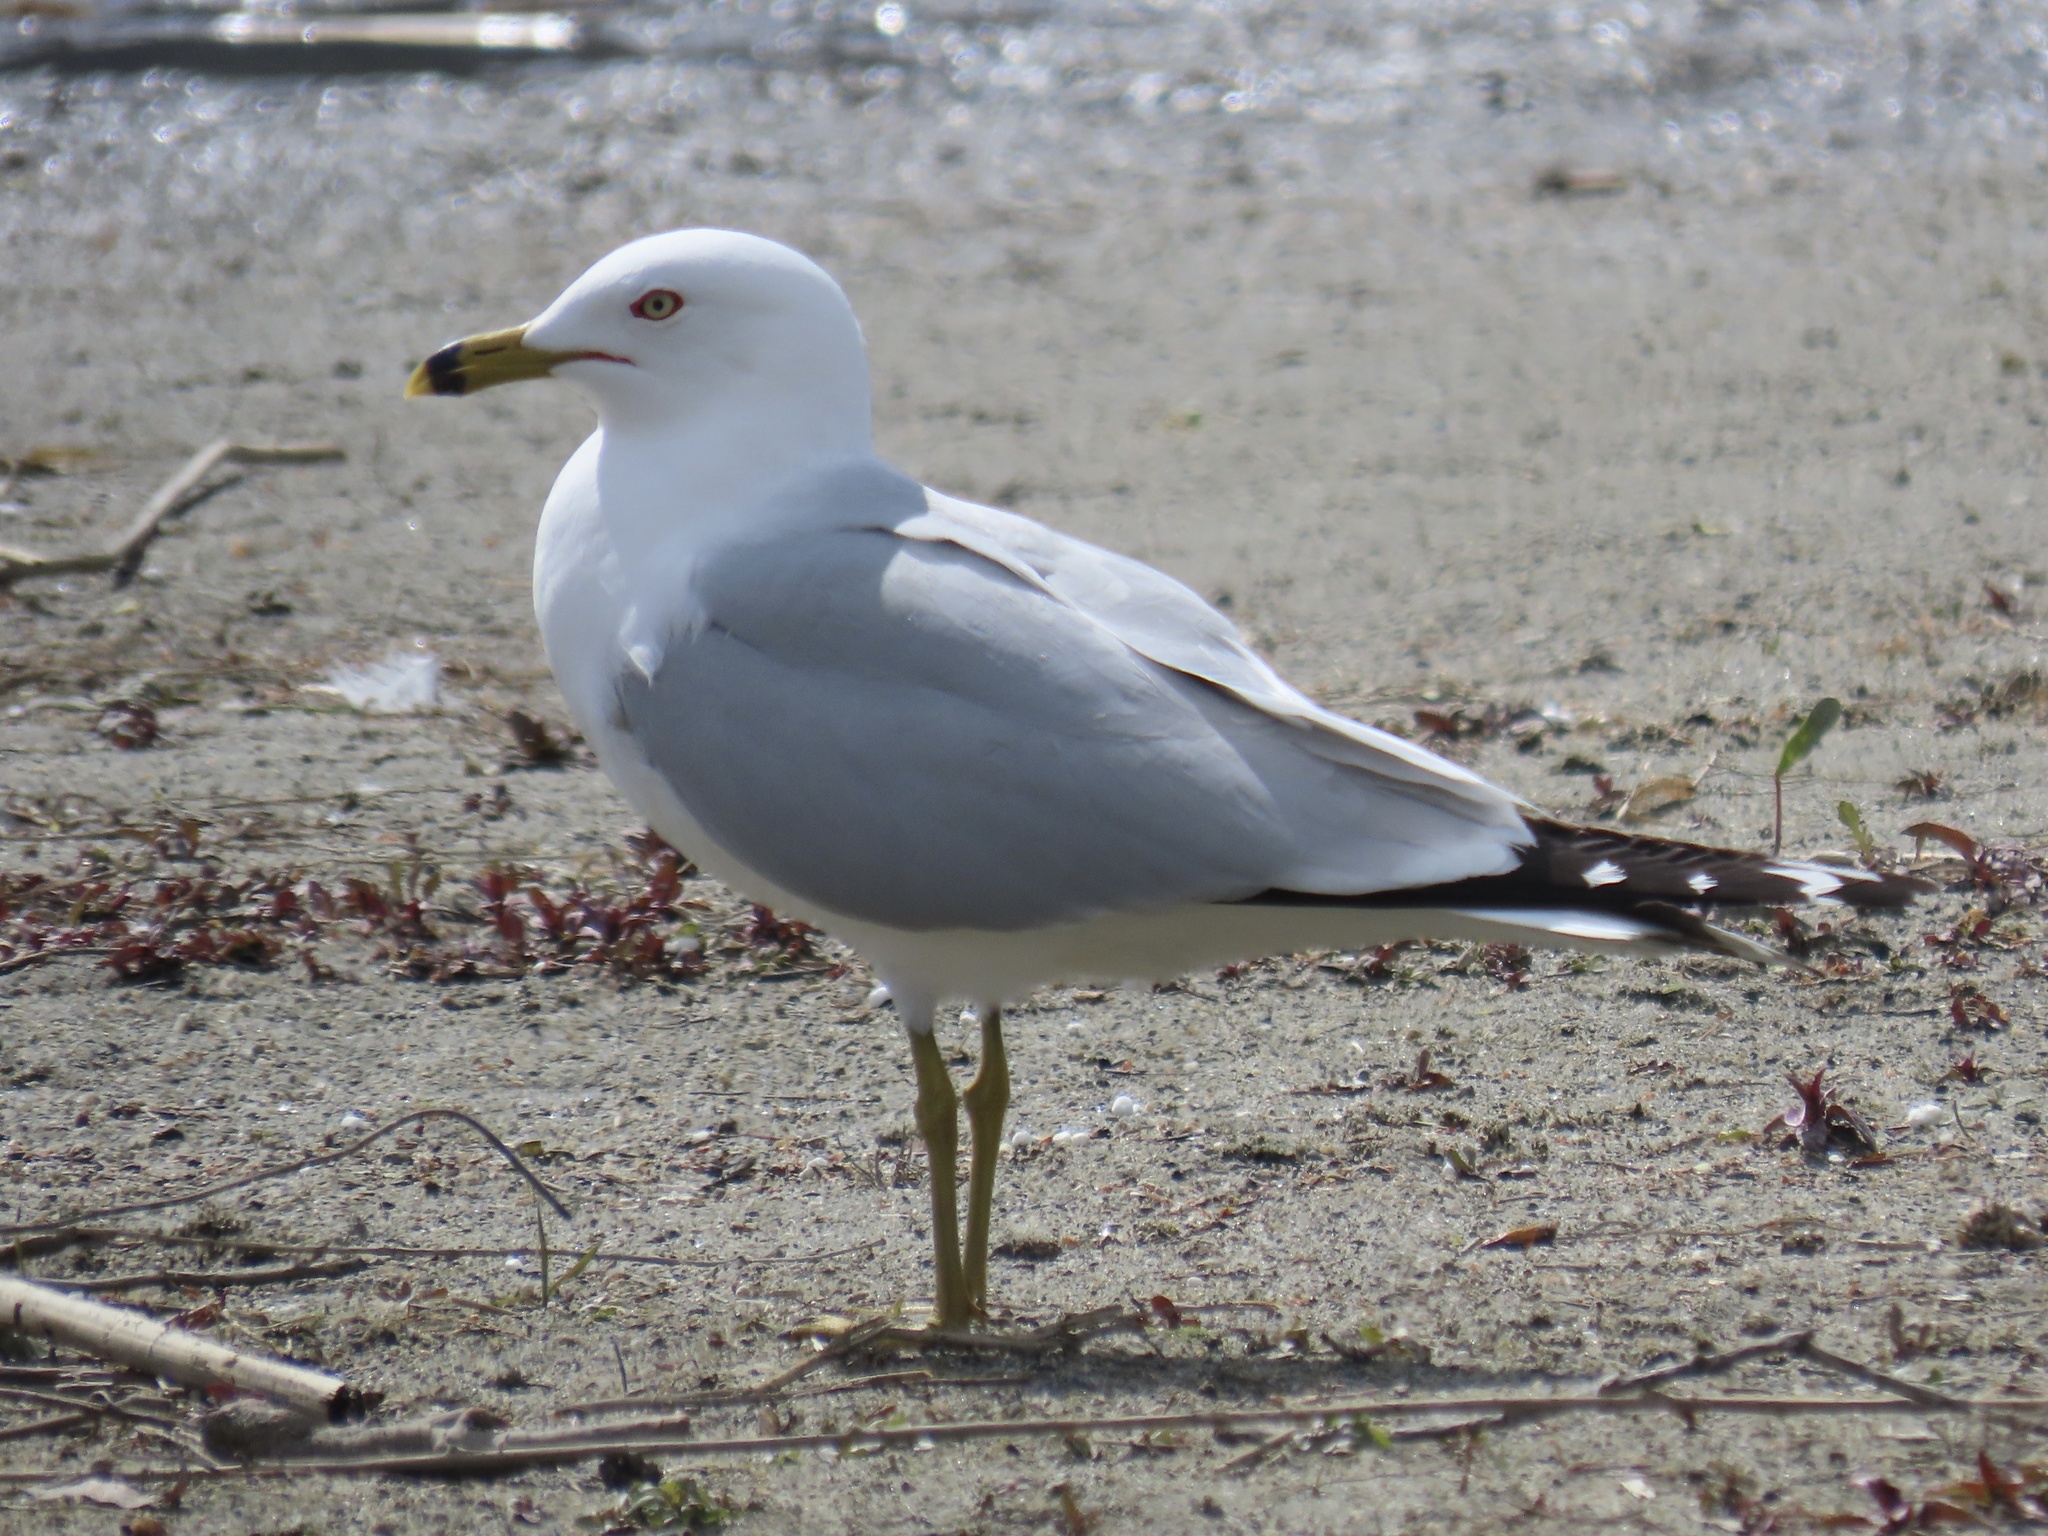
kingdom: Animalia
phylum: Chordata
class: Aves
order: Charadriiformes
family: Laridae
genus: Larus
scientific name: Larus delawarensis
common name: Ring-billed gull
